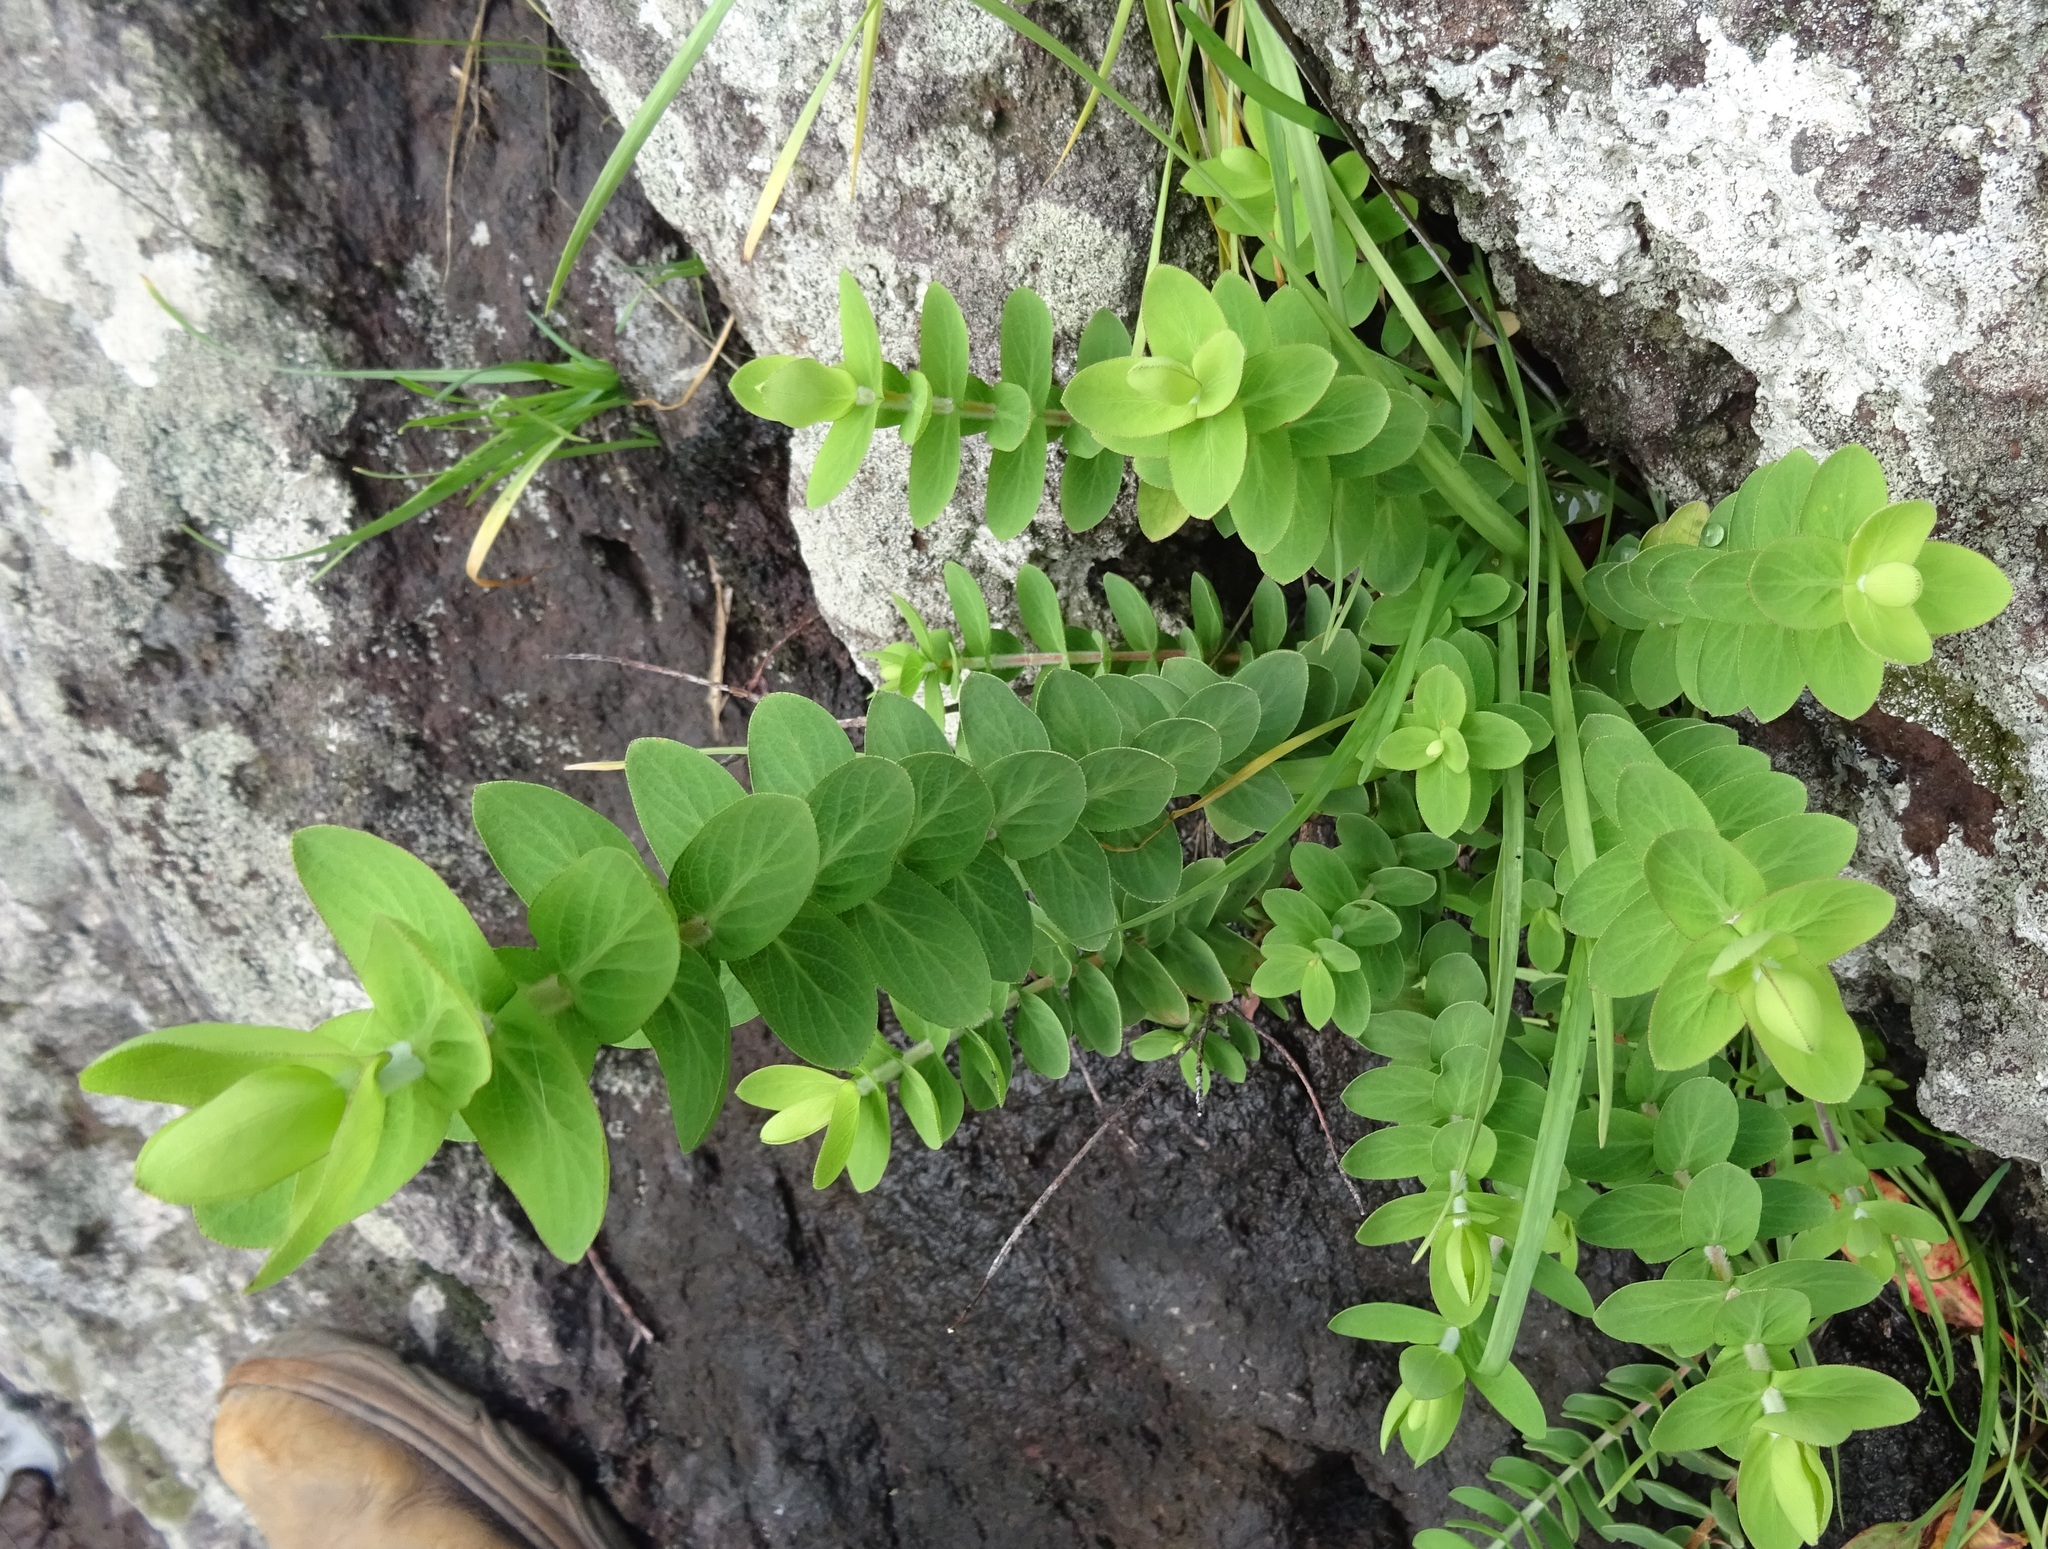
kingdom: Plantae
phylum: Tracheophyta
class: Magnoliopsida
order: Malpighiales
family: Hypericaceae
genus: Hypericum
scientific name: Hypericum reflexum
